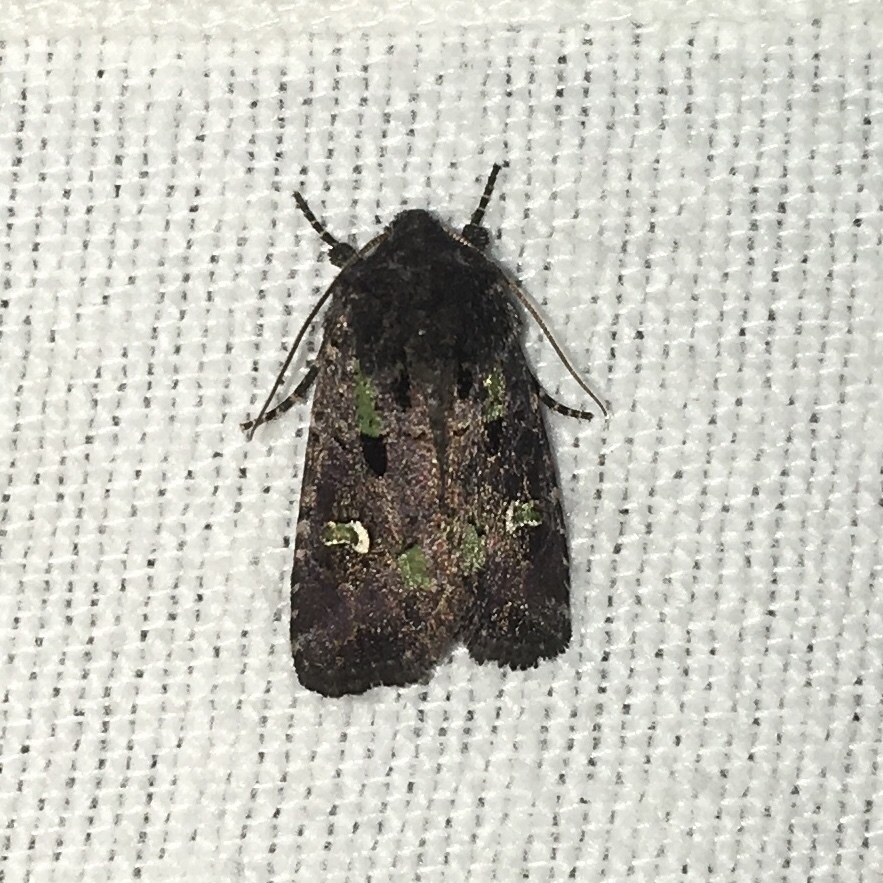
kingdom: Animalia
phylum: Arthropoda
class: Insecta
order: Lepidoptera
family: Noctuidae
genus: Lacinipolia
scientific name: Lacinipolia renigera
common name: Kidney-spotted minor
